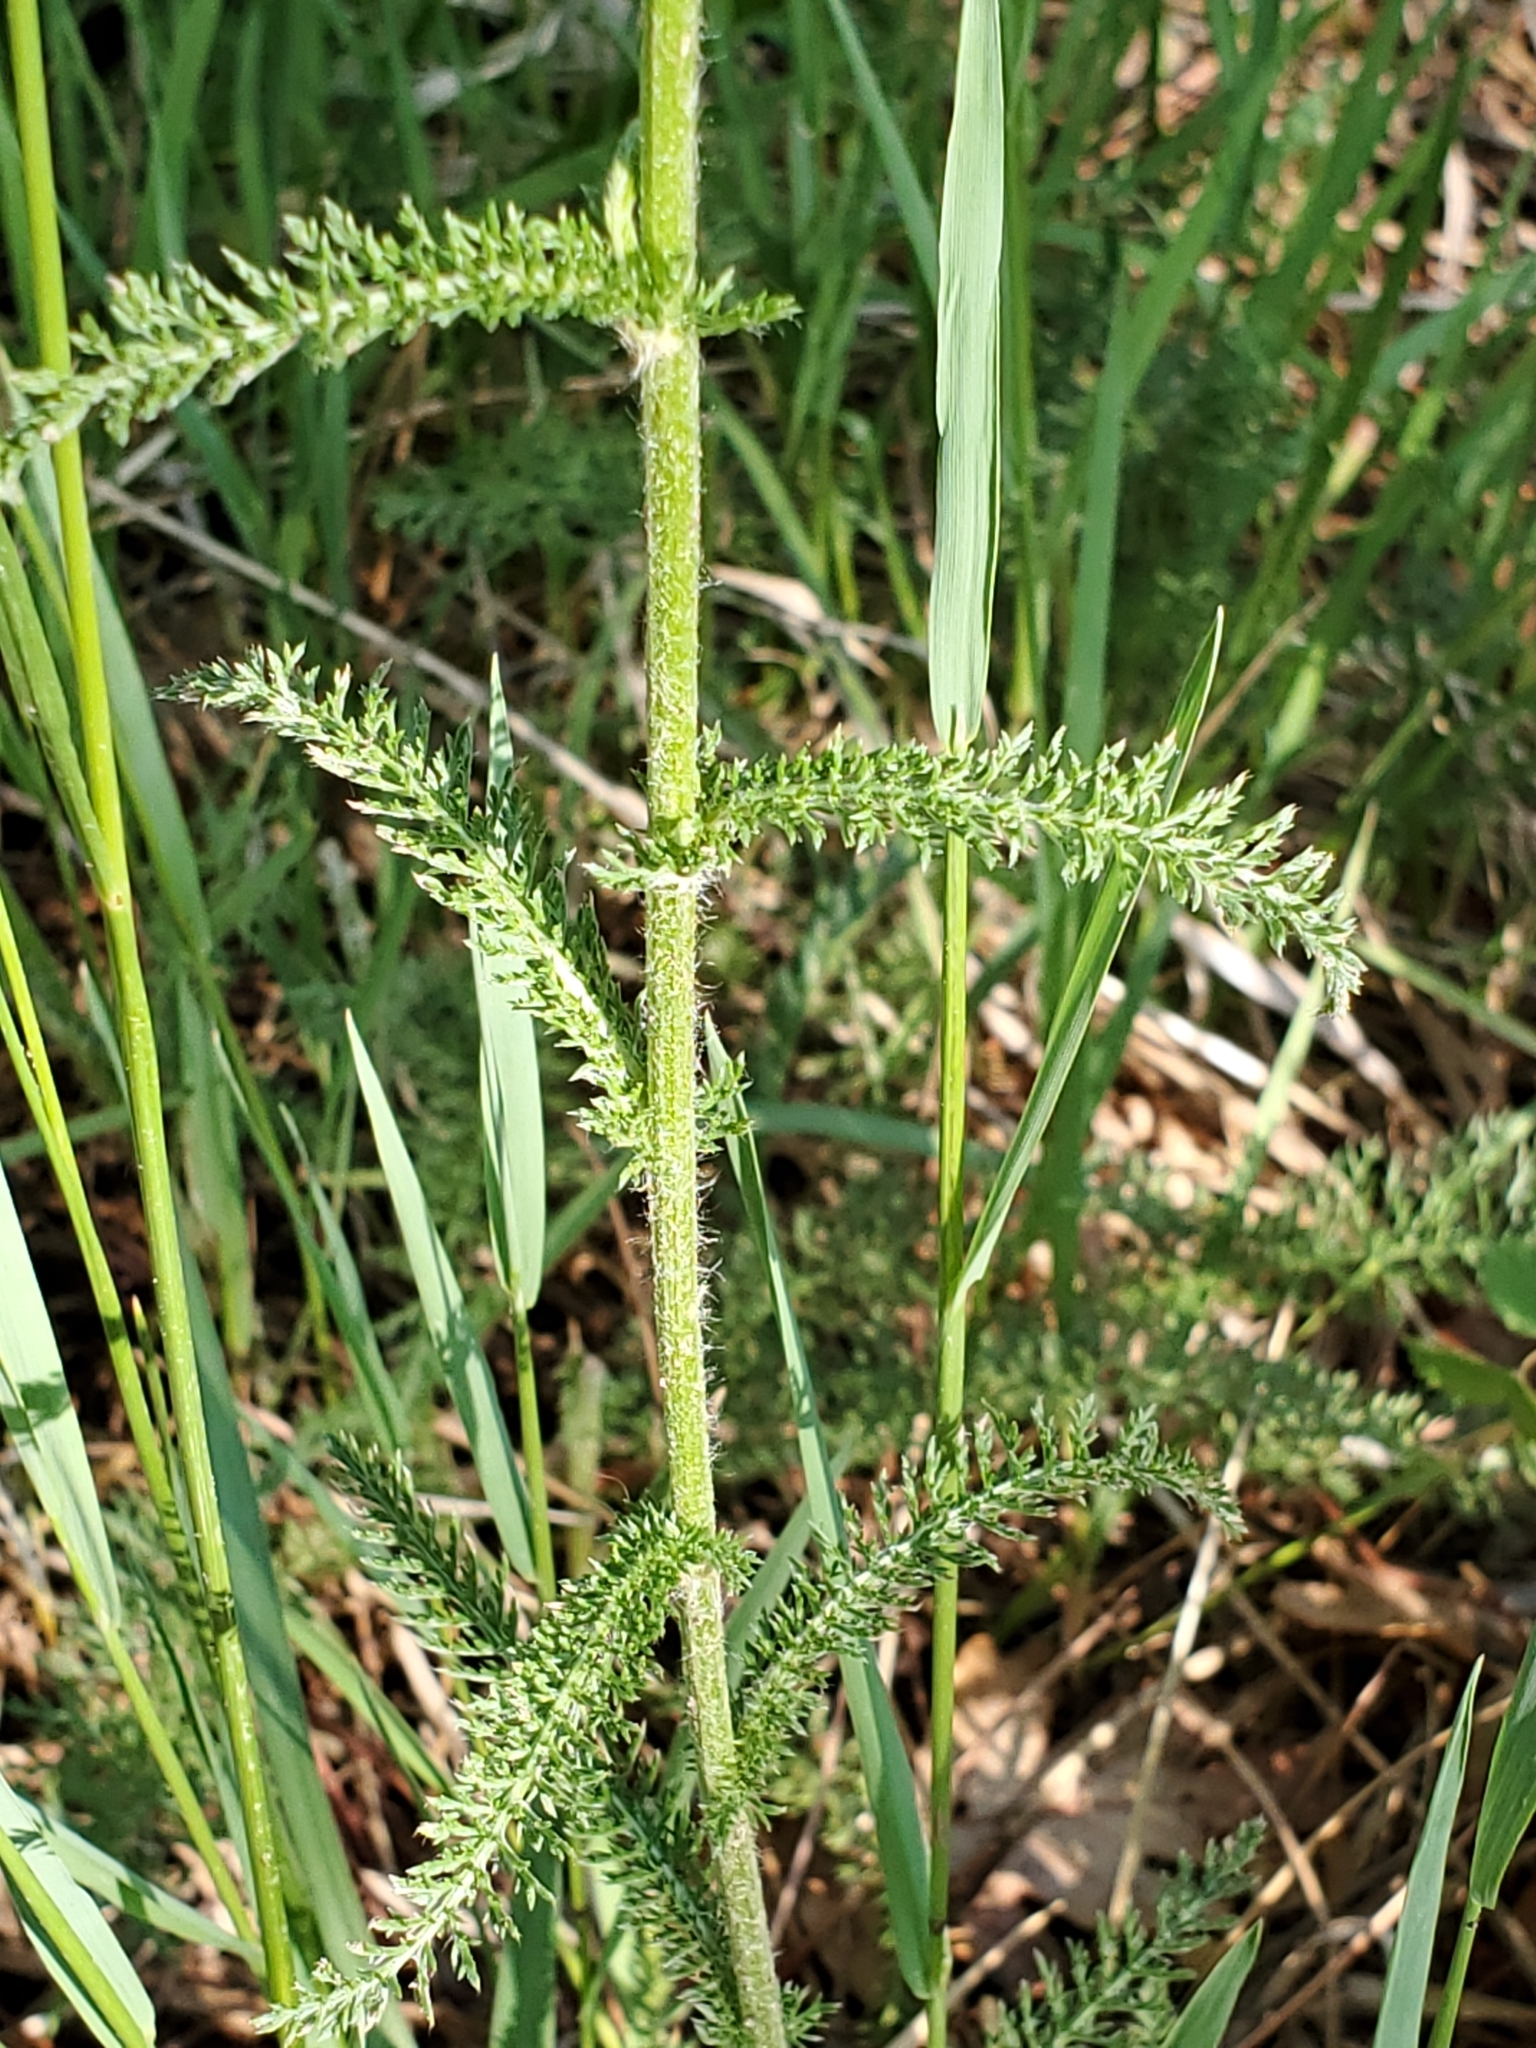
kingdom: Plantae
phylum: Tracheophyta
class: Magnoliopsida
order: Asterales
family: Asteraceae
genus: Achillea
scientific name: Achillea millefolium
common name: Yarrow
